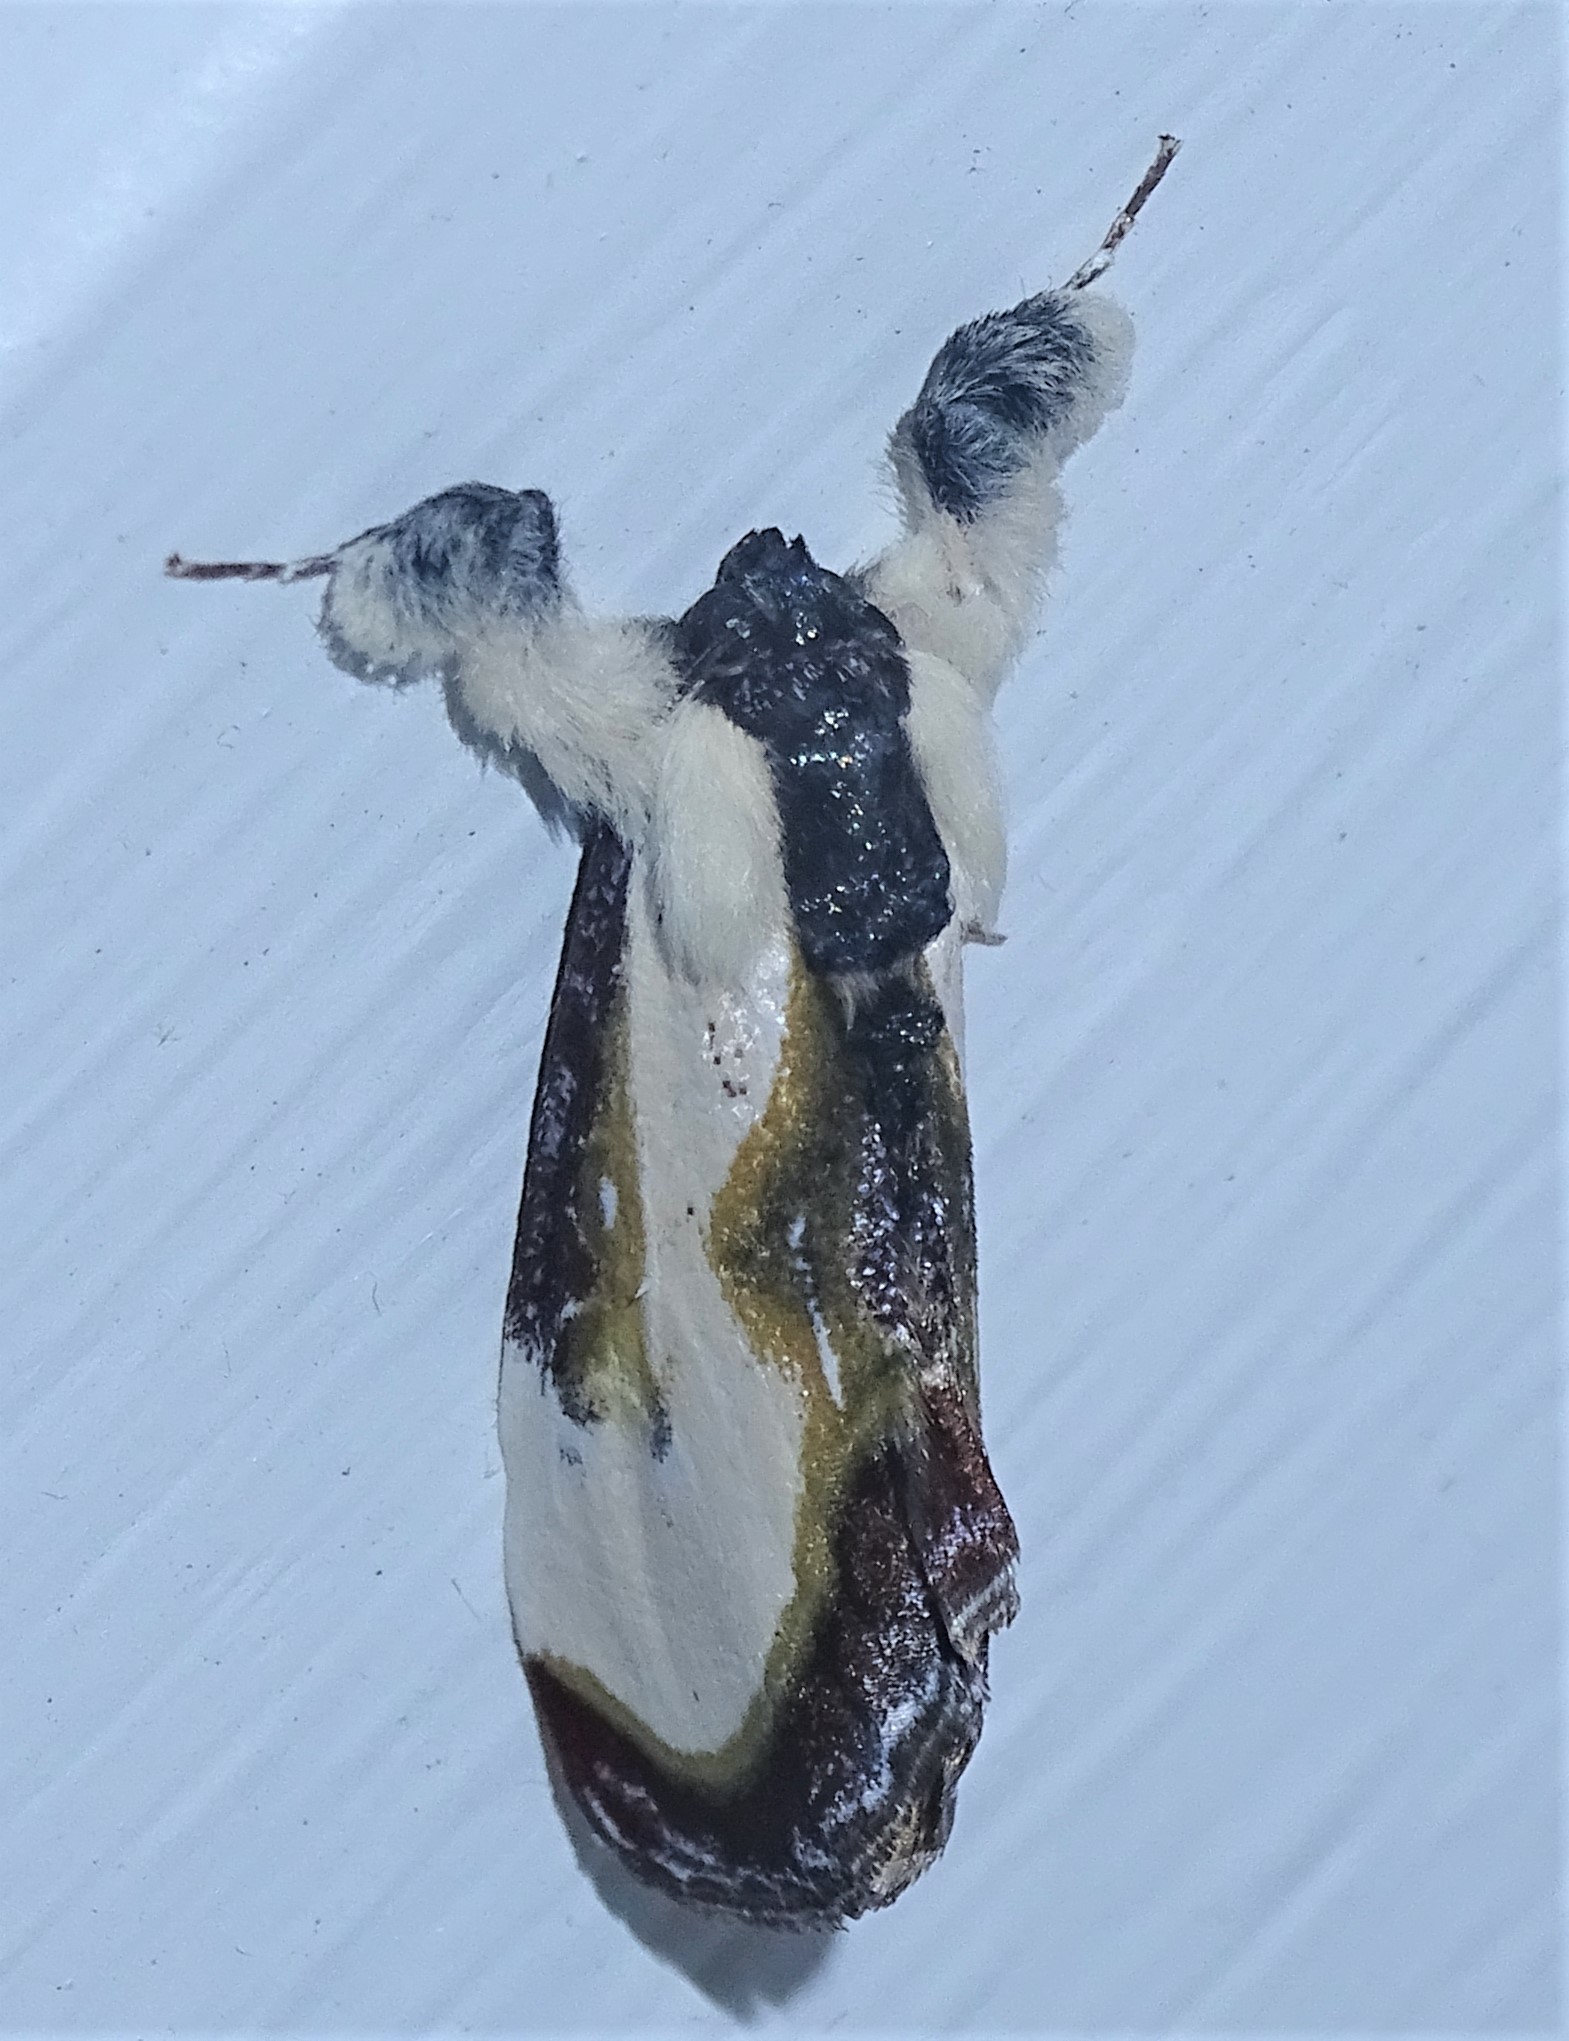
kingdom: Animalia
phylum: Arthropoda
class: Insecta
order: Lepidoptera
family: Noctuidae
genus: Eudryas
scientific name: Eudryas grata
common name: Beautiful wood-nymph
